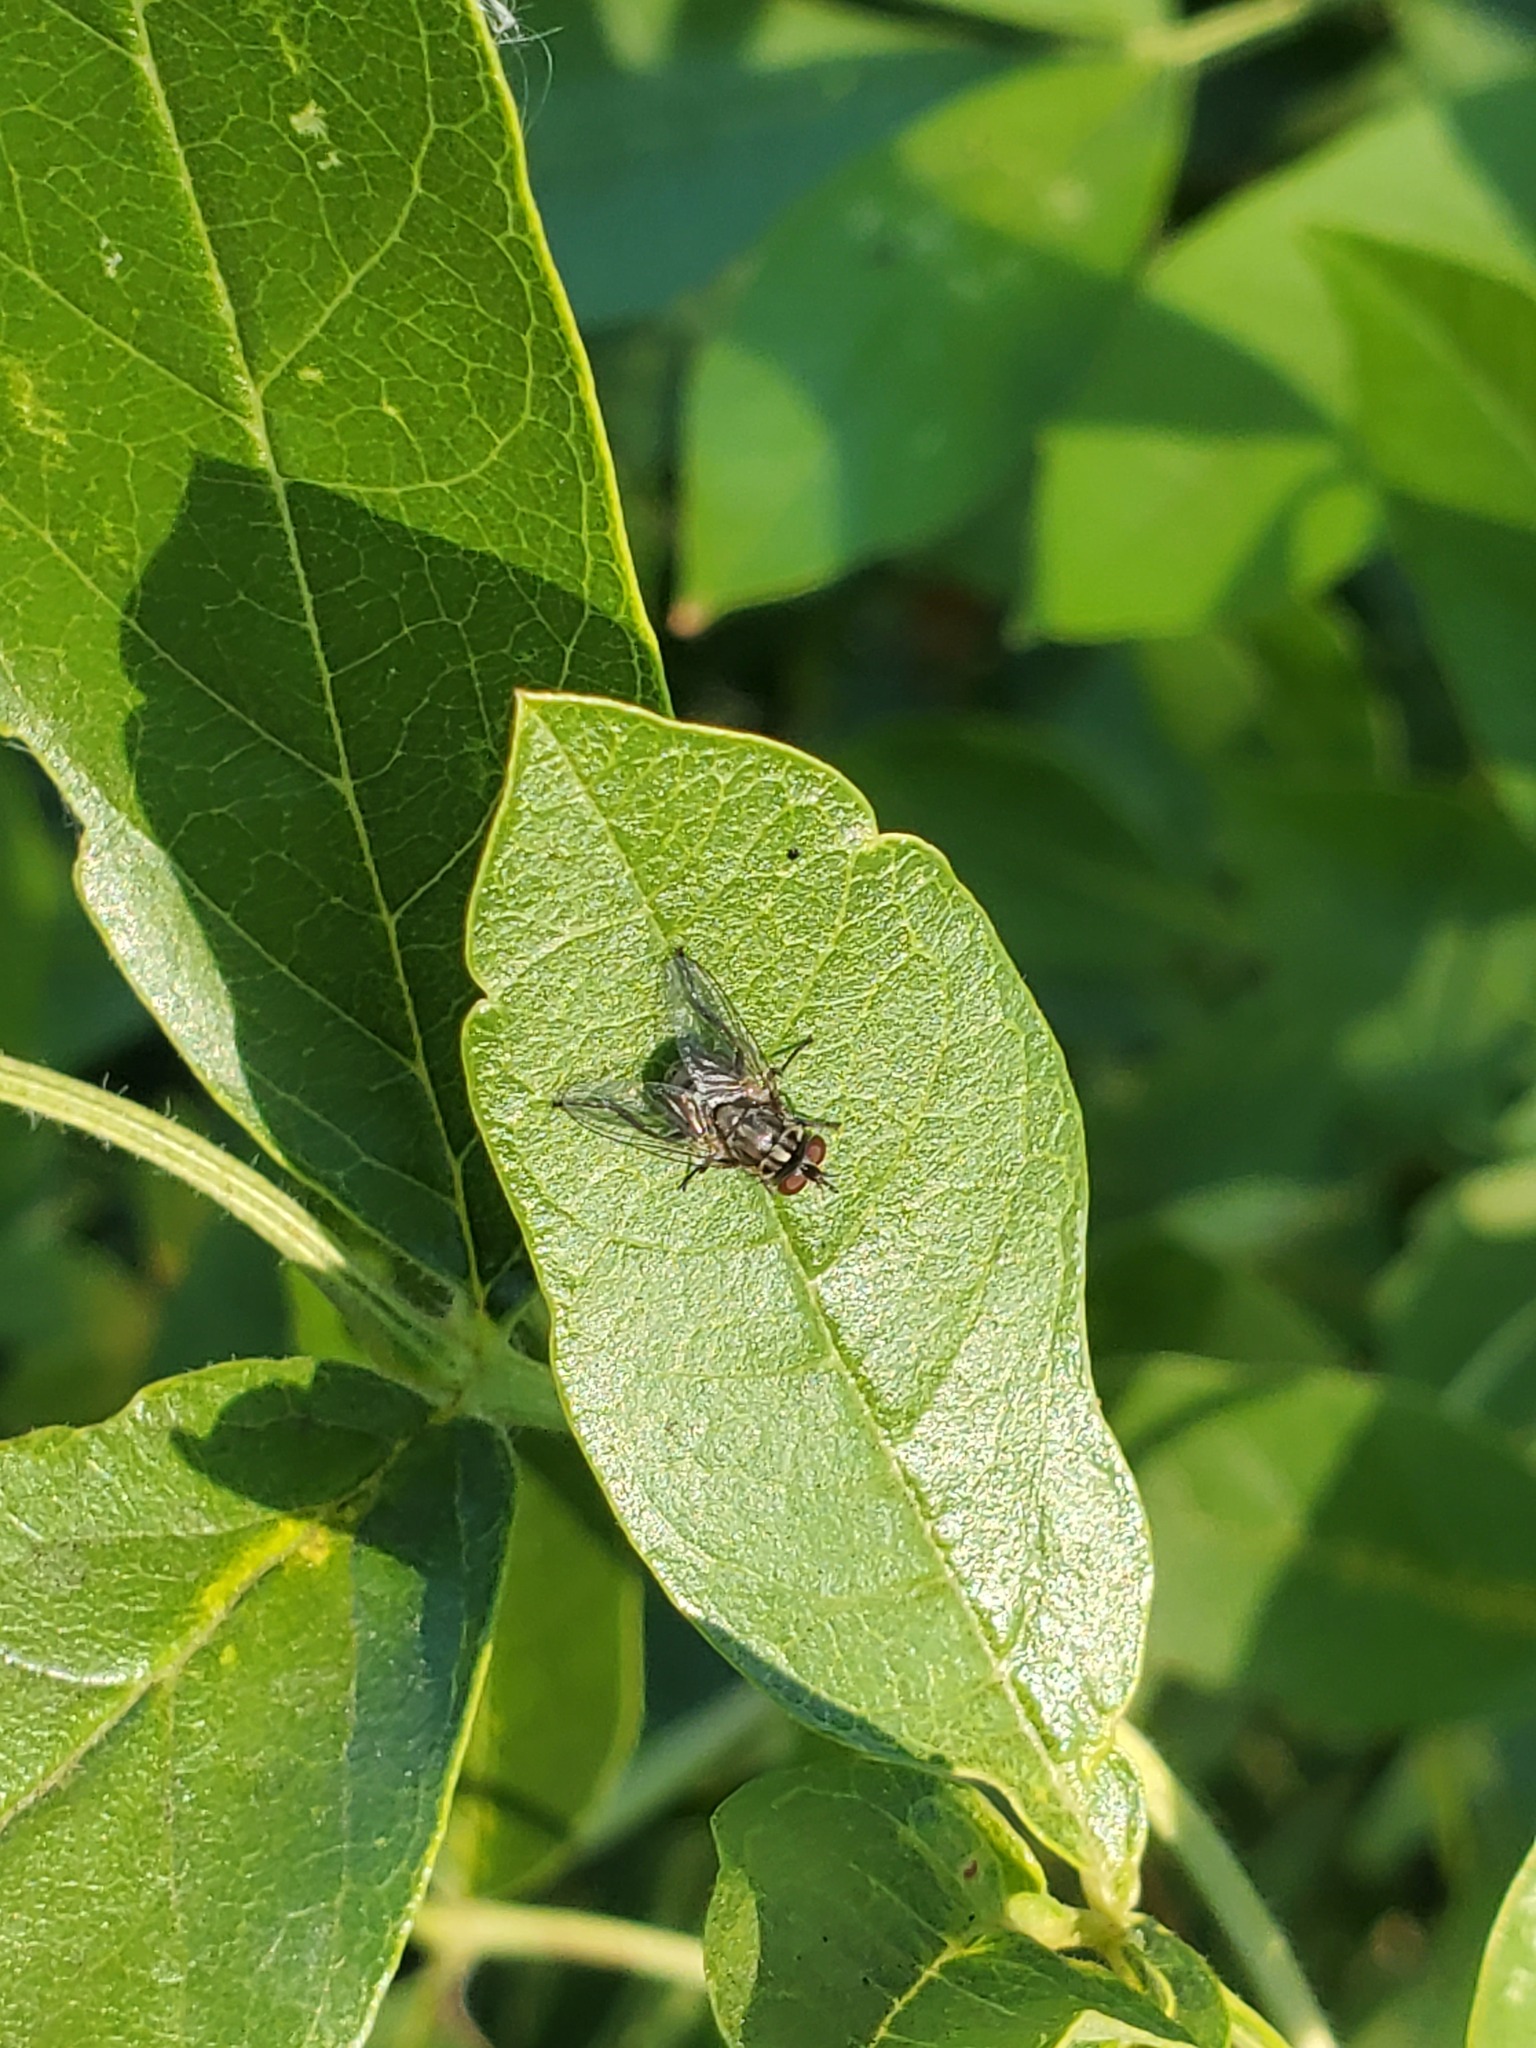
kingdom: Animalia
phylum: Arthropoda
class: Insecta
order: Diptera
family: Muscidae
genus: Stomoxys
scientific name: Stomoxys calcitrans
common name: Stable fly
